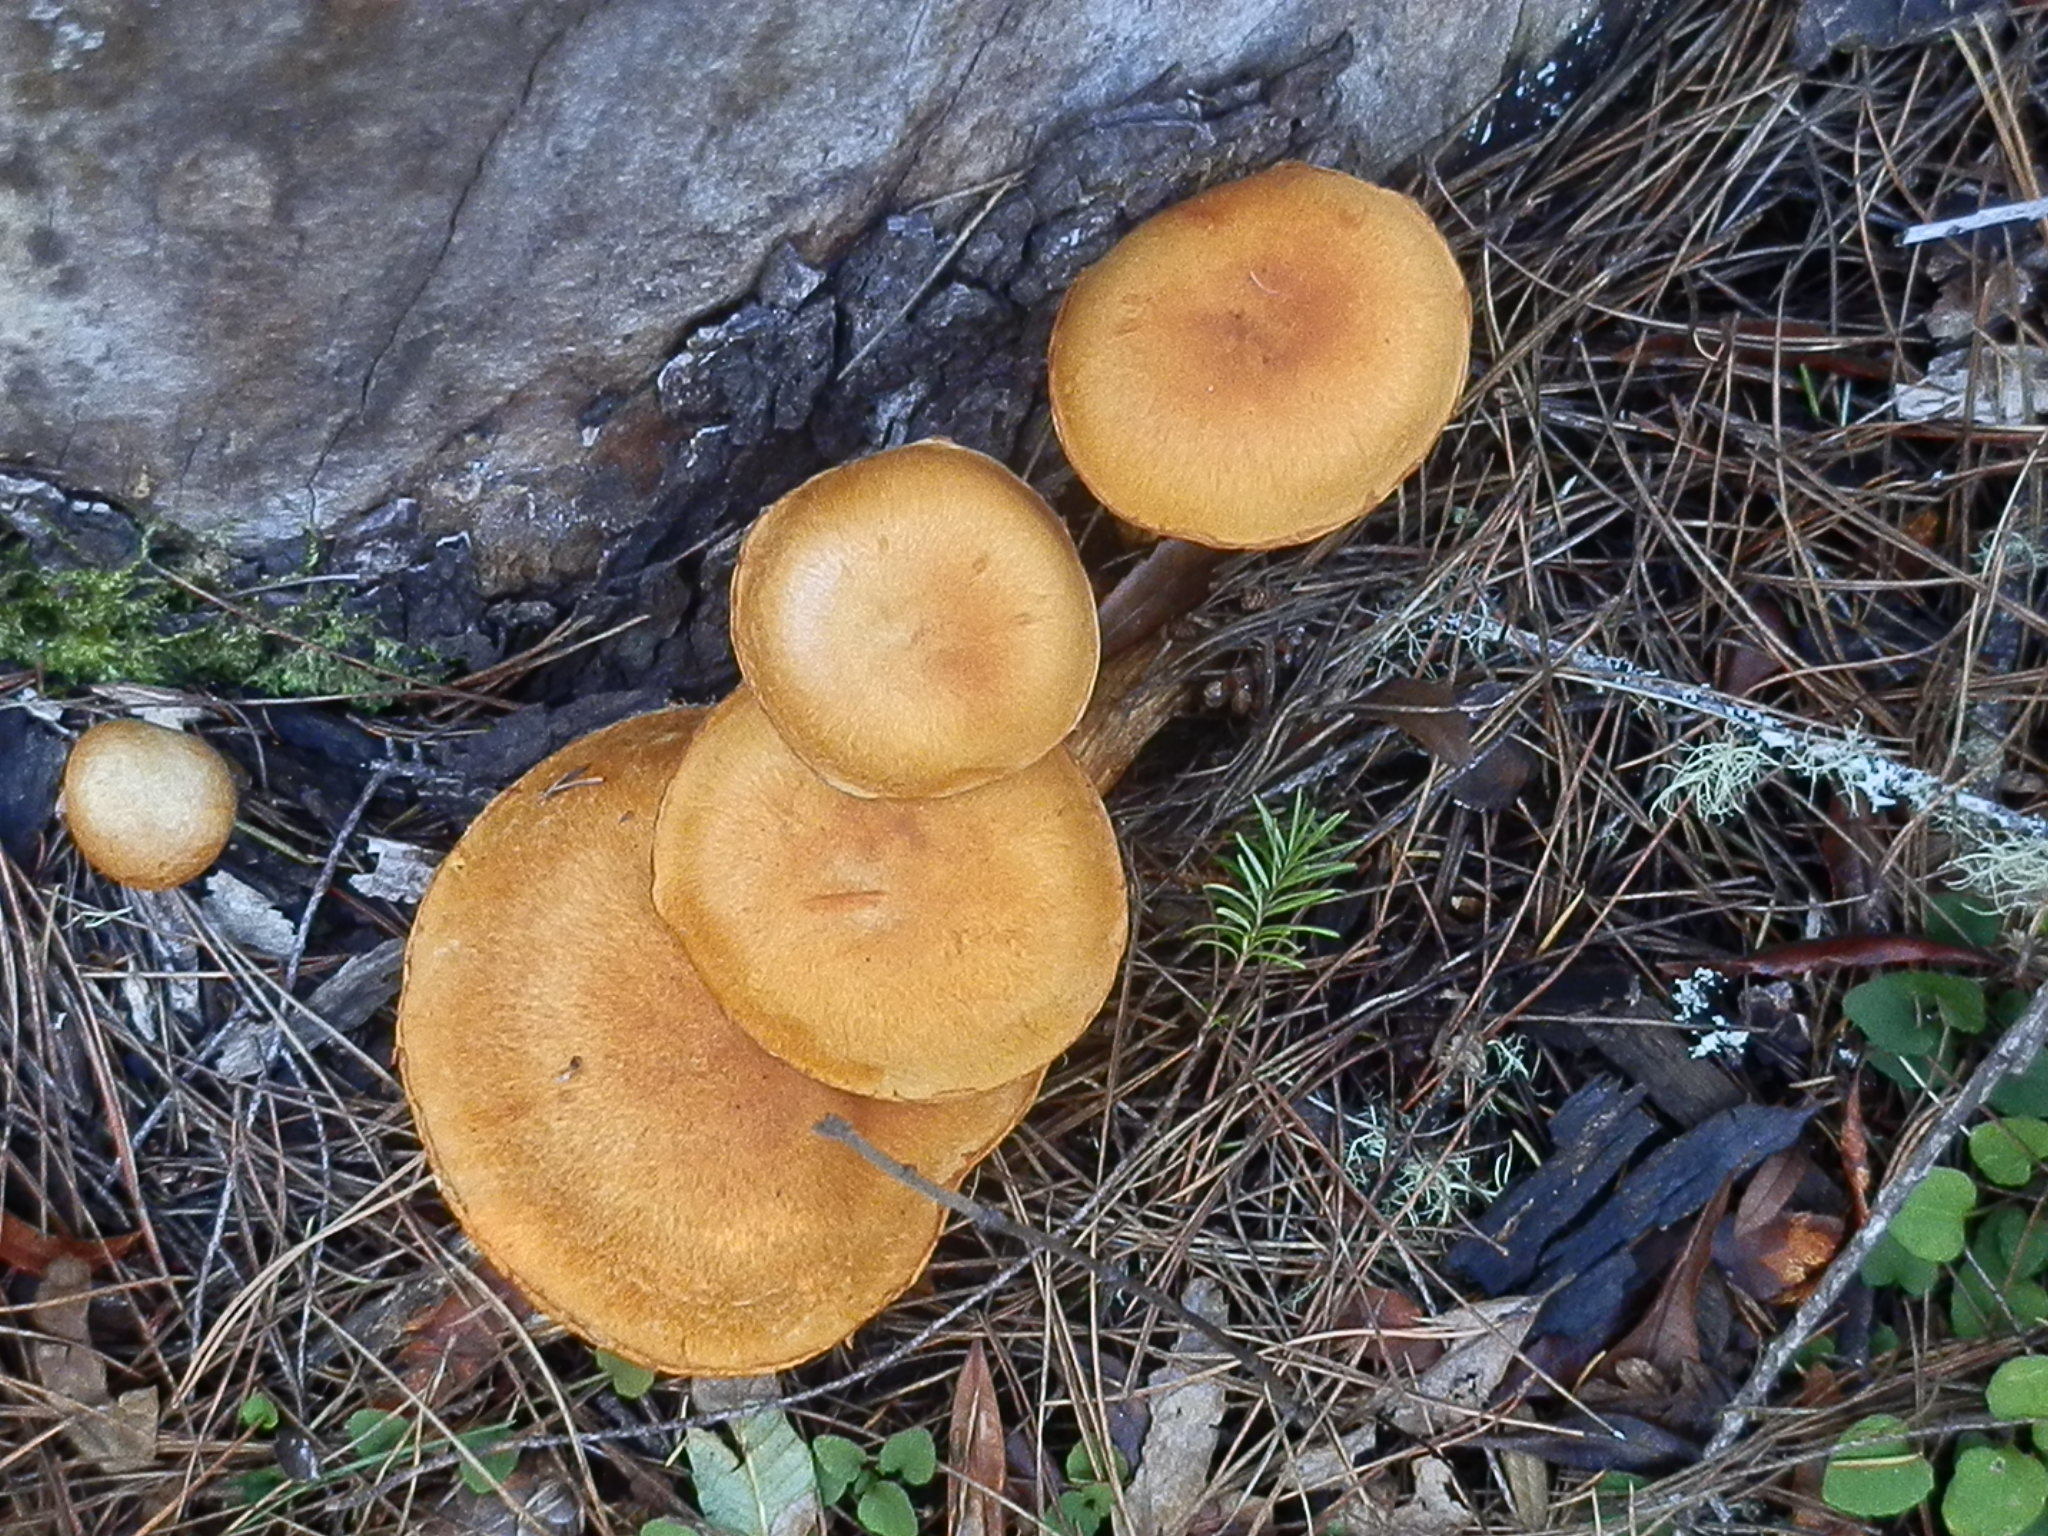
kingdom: Fungi
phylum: Basidiomycota
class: Agaricomycetes
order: Agaricales
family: Hymenogastraceae
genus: Gymnopilus
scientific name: Gymnopilus luteocarneus
